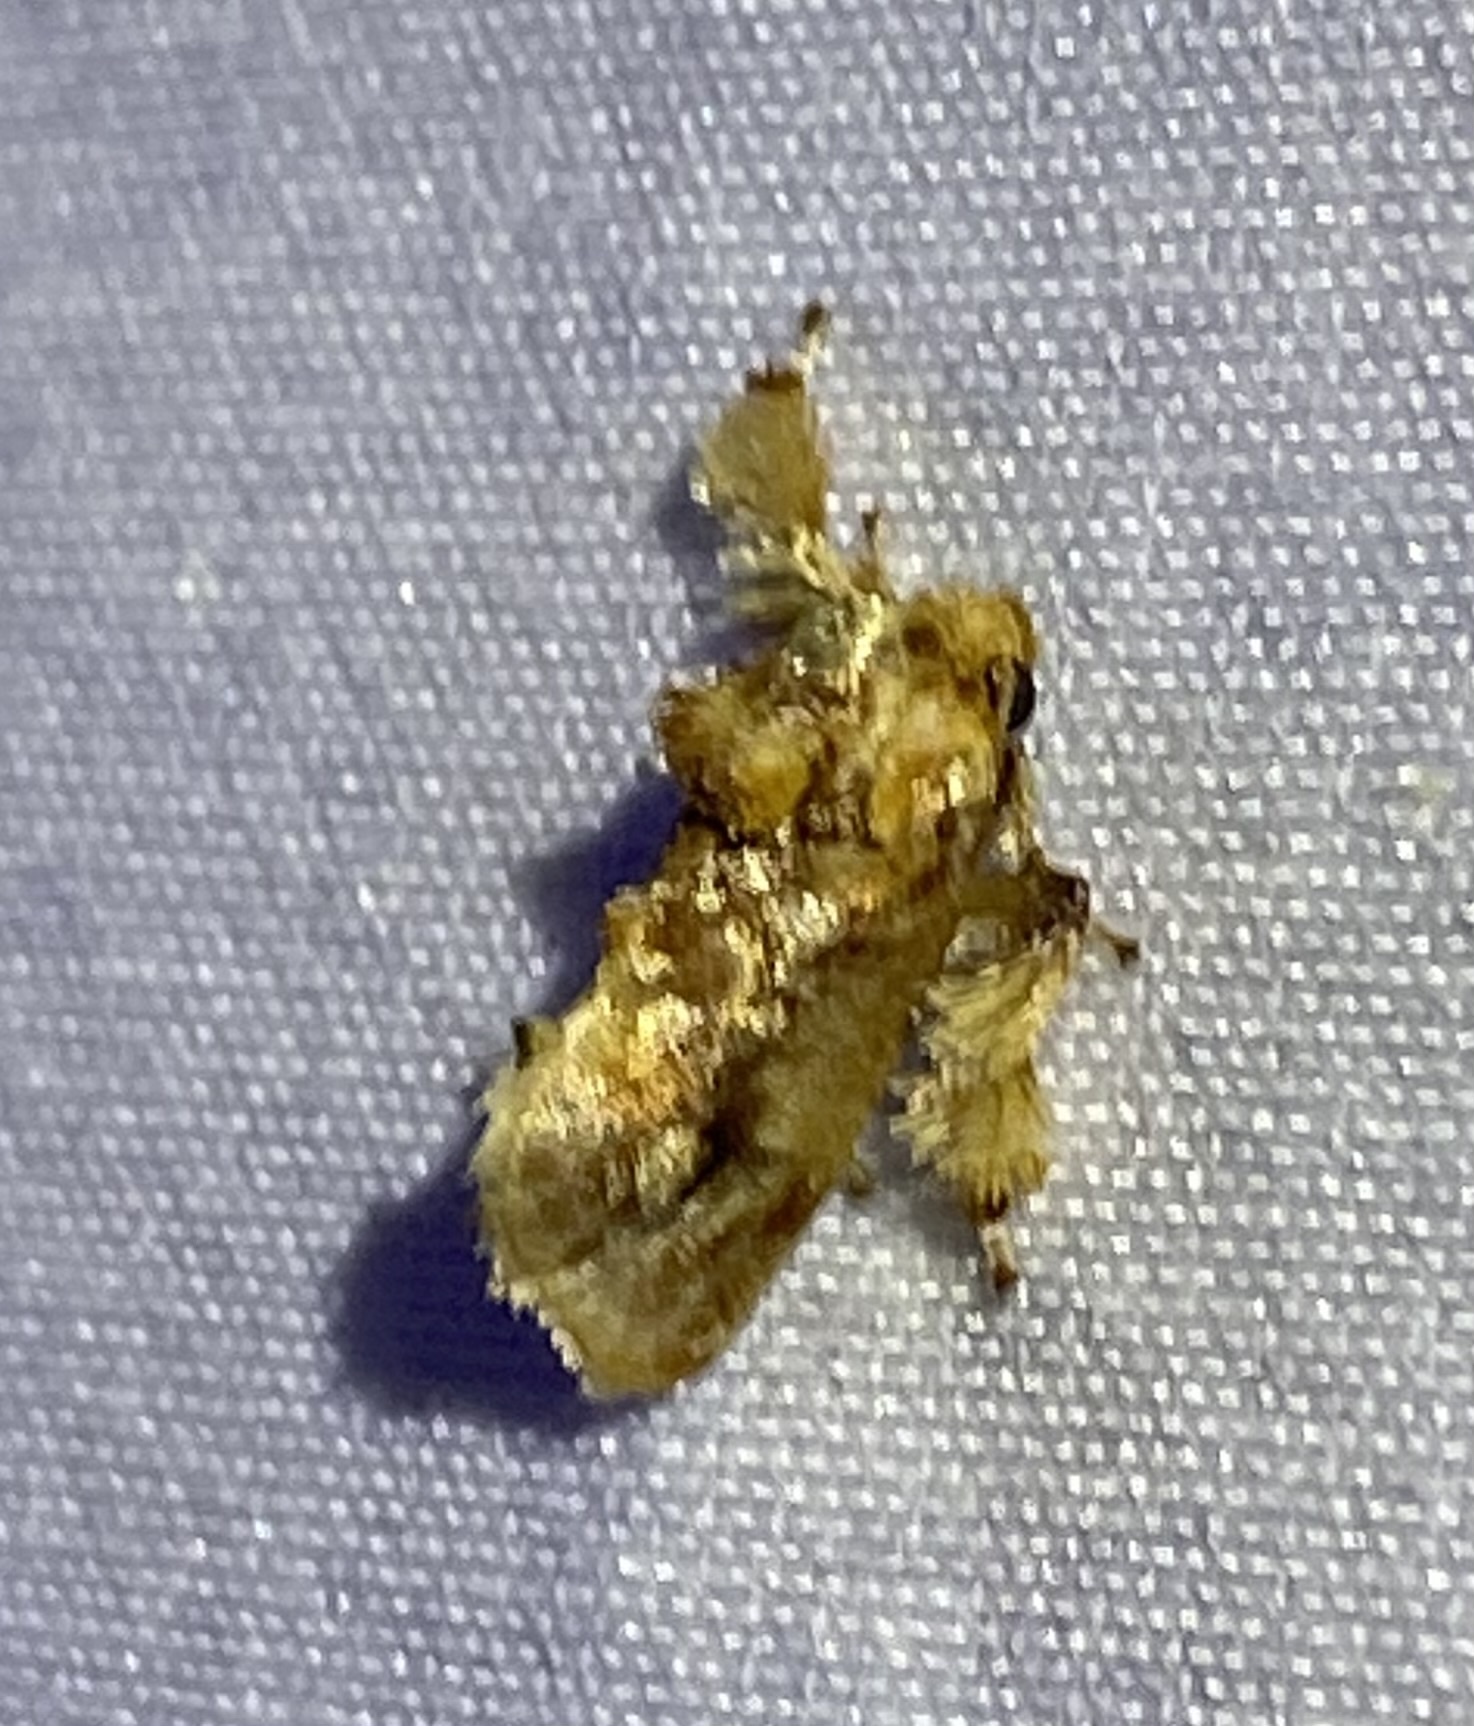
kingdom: Animalia
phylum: Arthropoda
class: Insecta
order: Lepidoptera
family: Limacodidae
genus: Isochaetes
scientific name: Isochaetes beutenmuelleri
